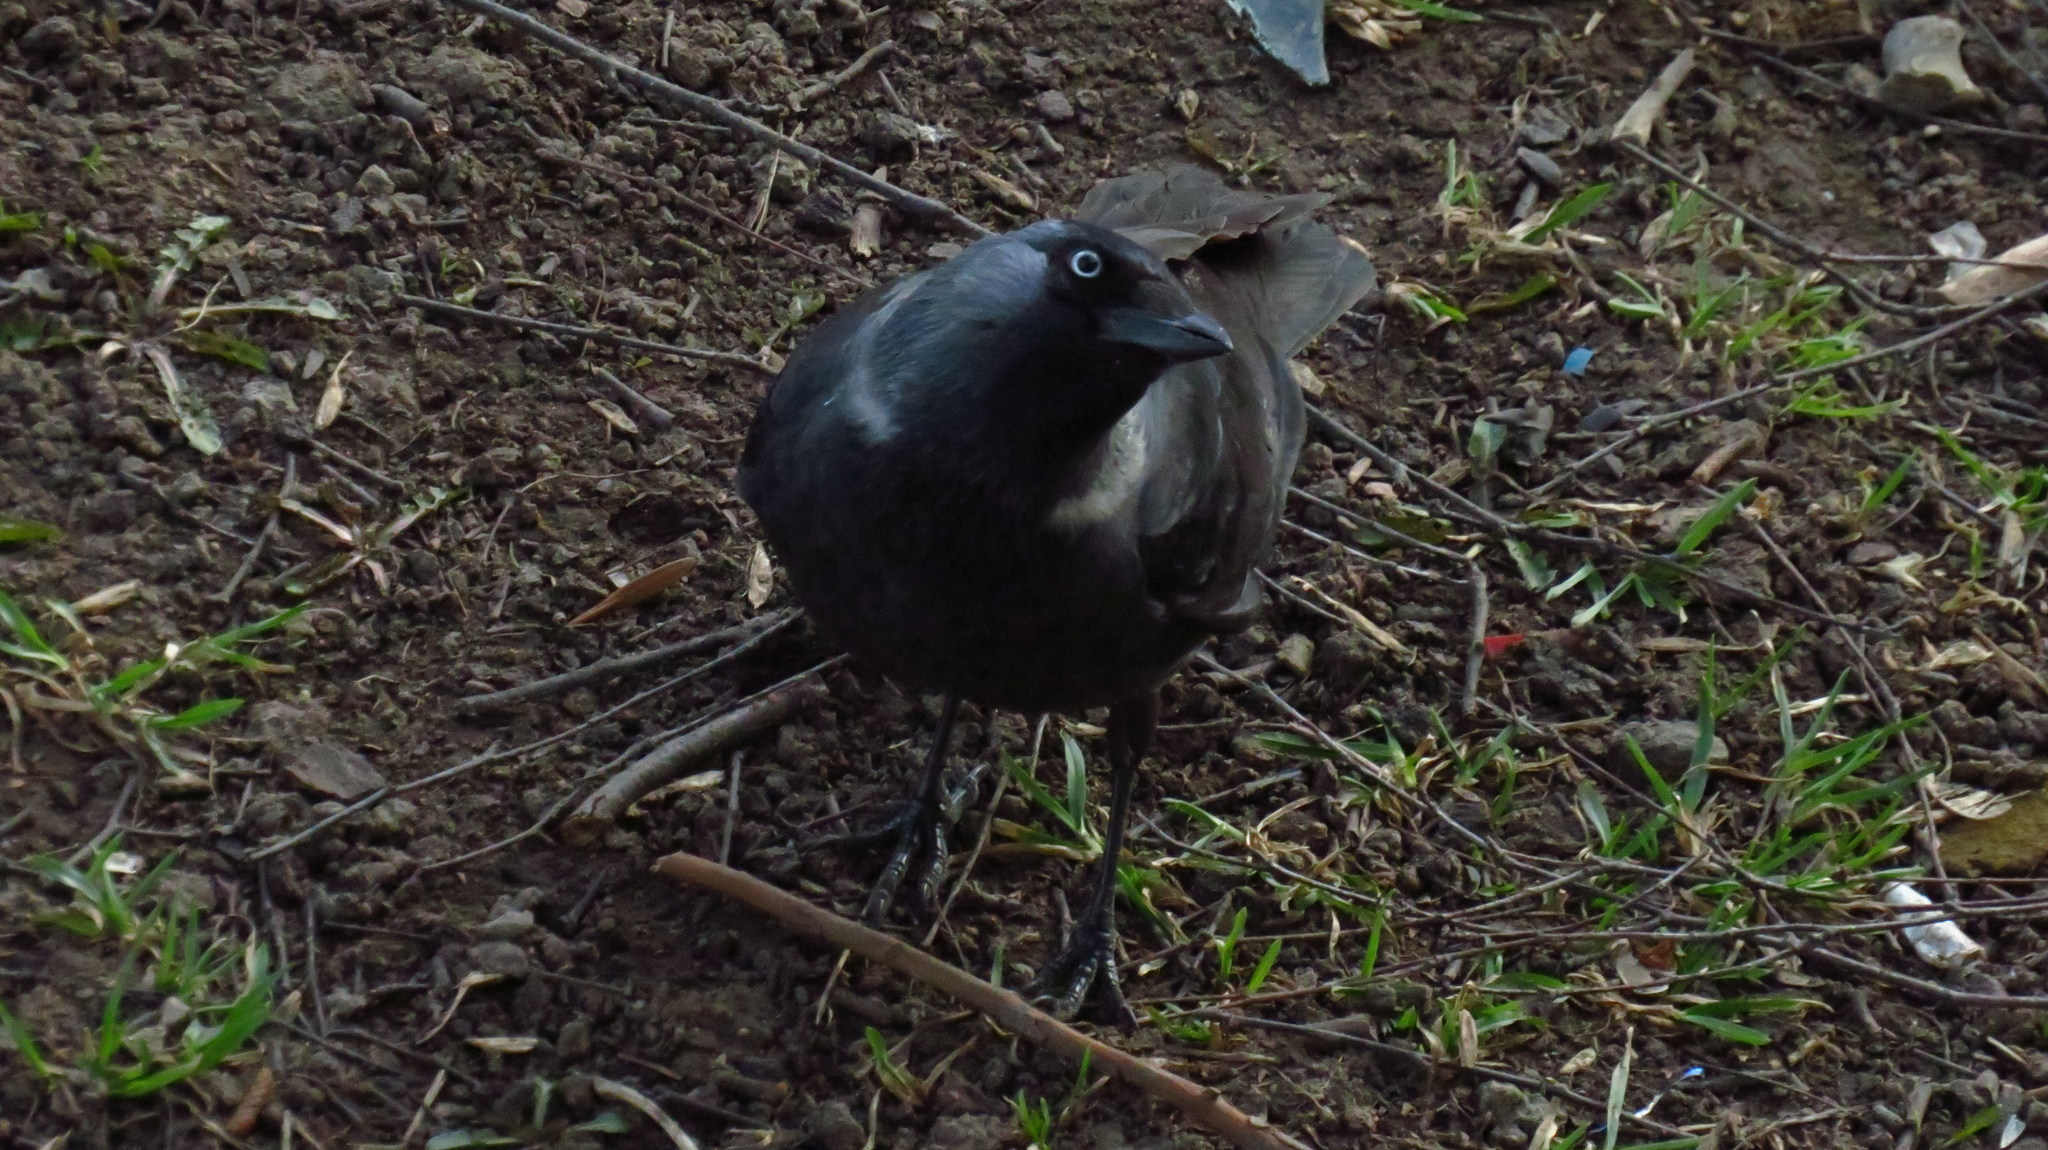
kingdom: Animalia
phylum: Chordata
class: Aves
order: Passeriformes
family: Corvidae
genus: Coloeus
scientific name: Coloeus monedula
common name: Western jackdaw
